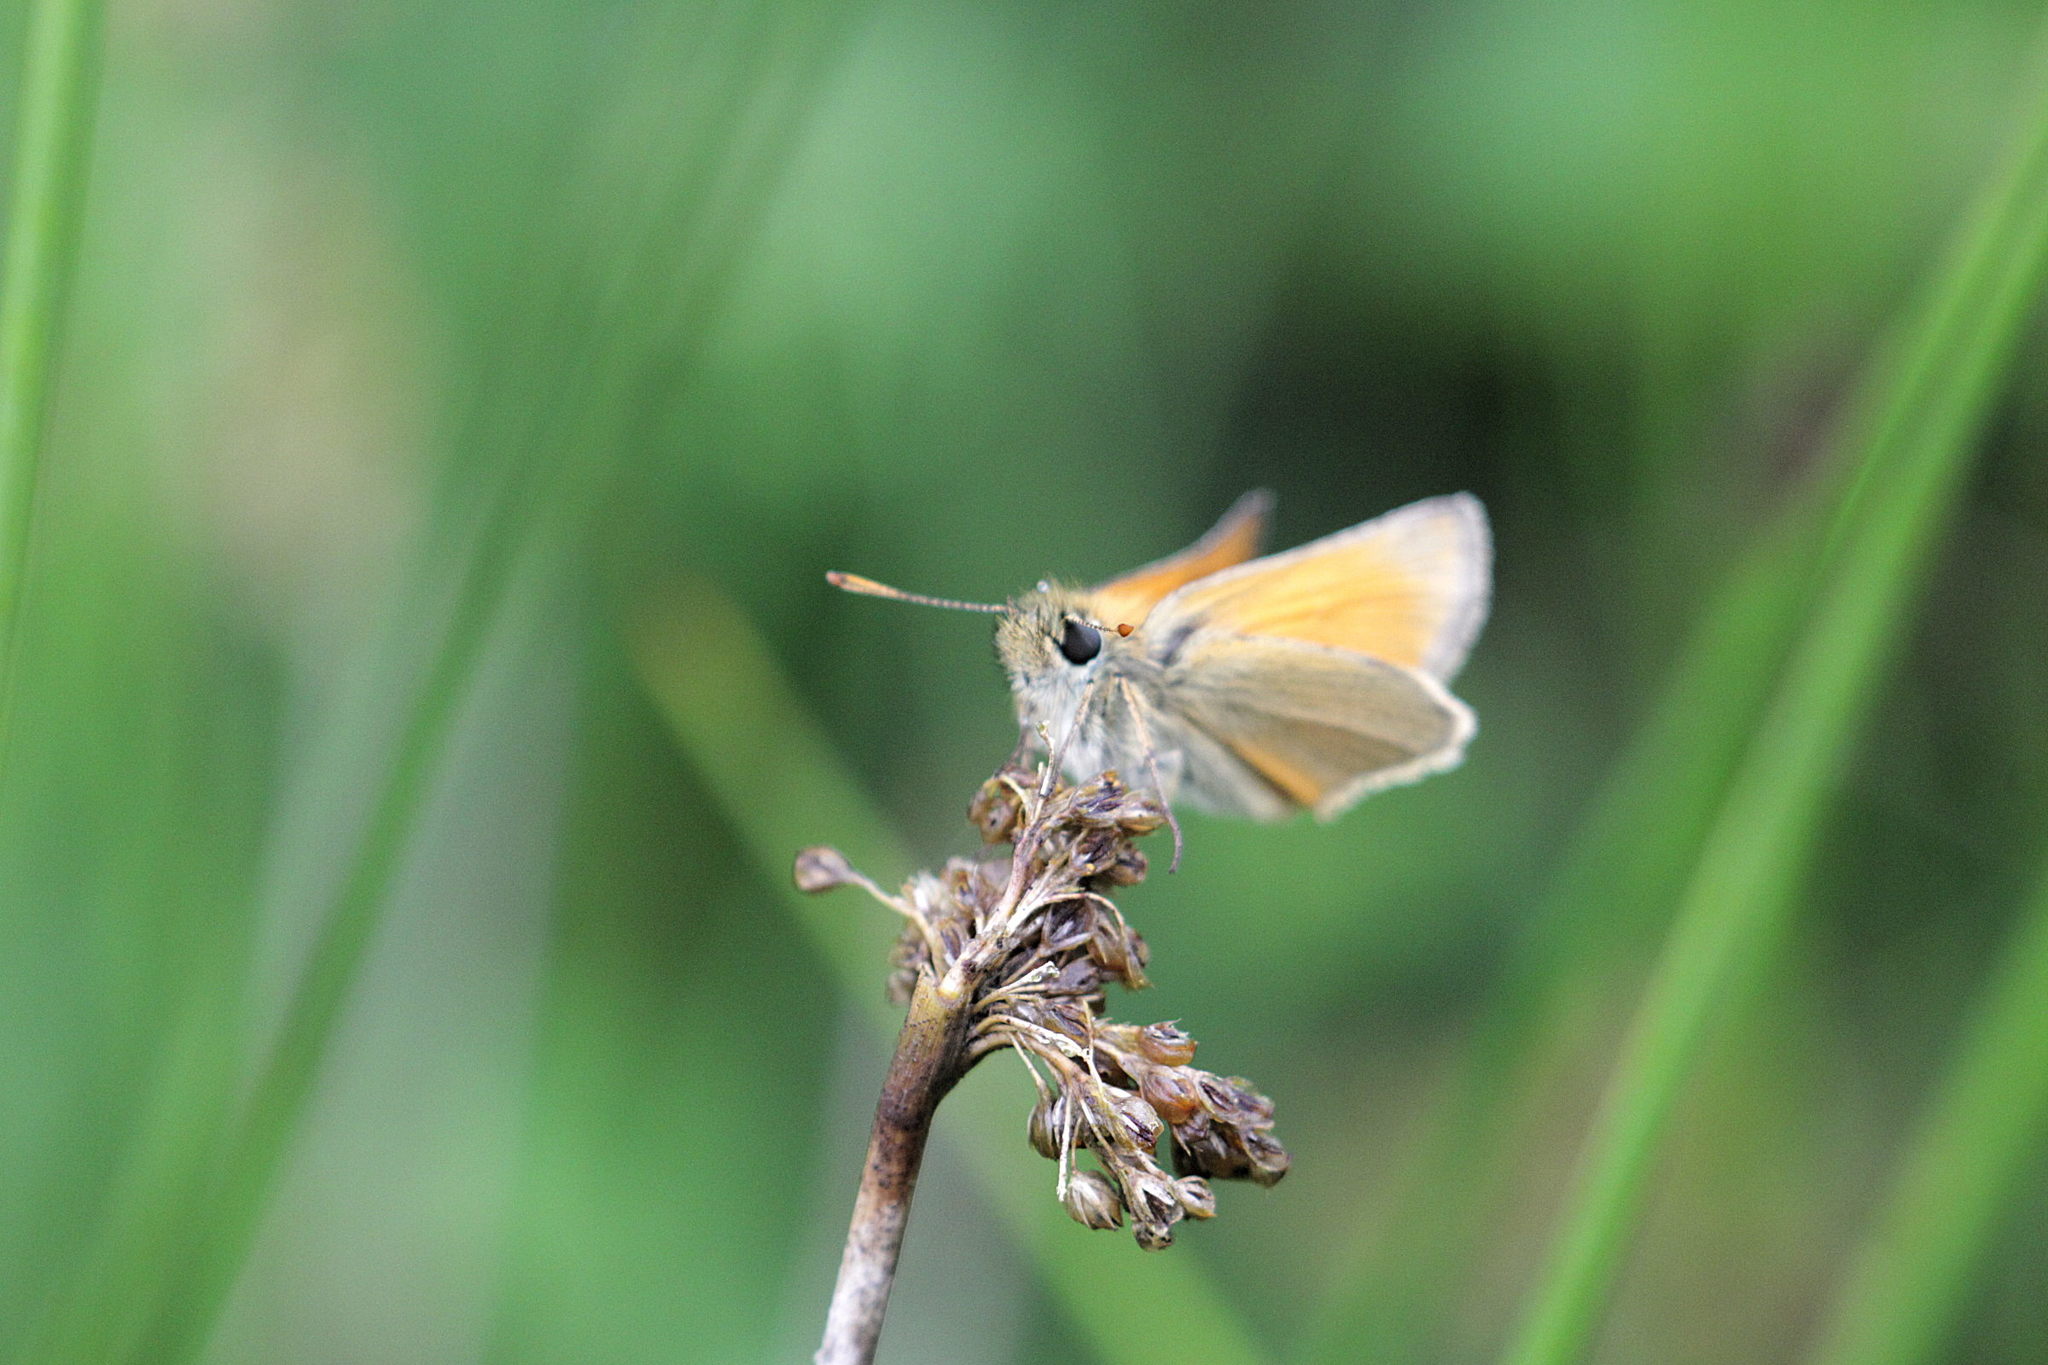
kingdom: Animalia
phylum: Arthropoda
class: Insecta
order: Lepidoptera
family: Hesperiidae
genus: Thymelicus
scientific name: Thymelicus sylvestris
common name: Small skipper
